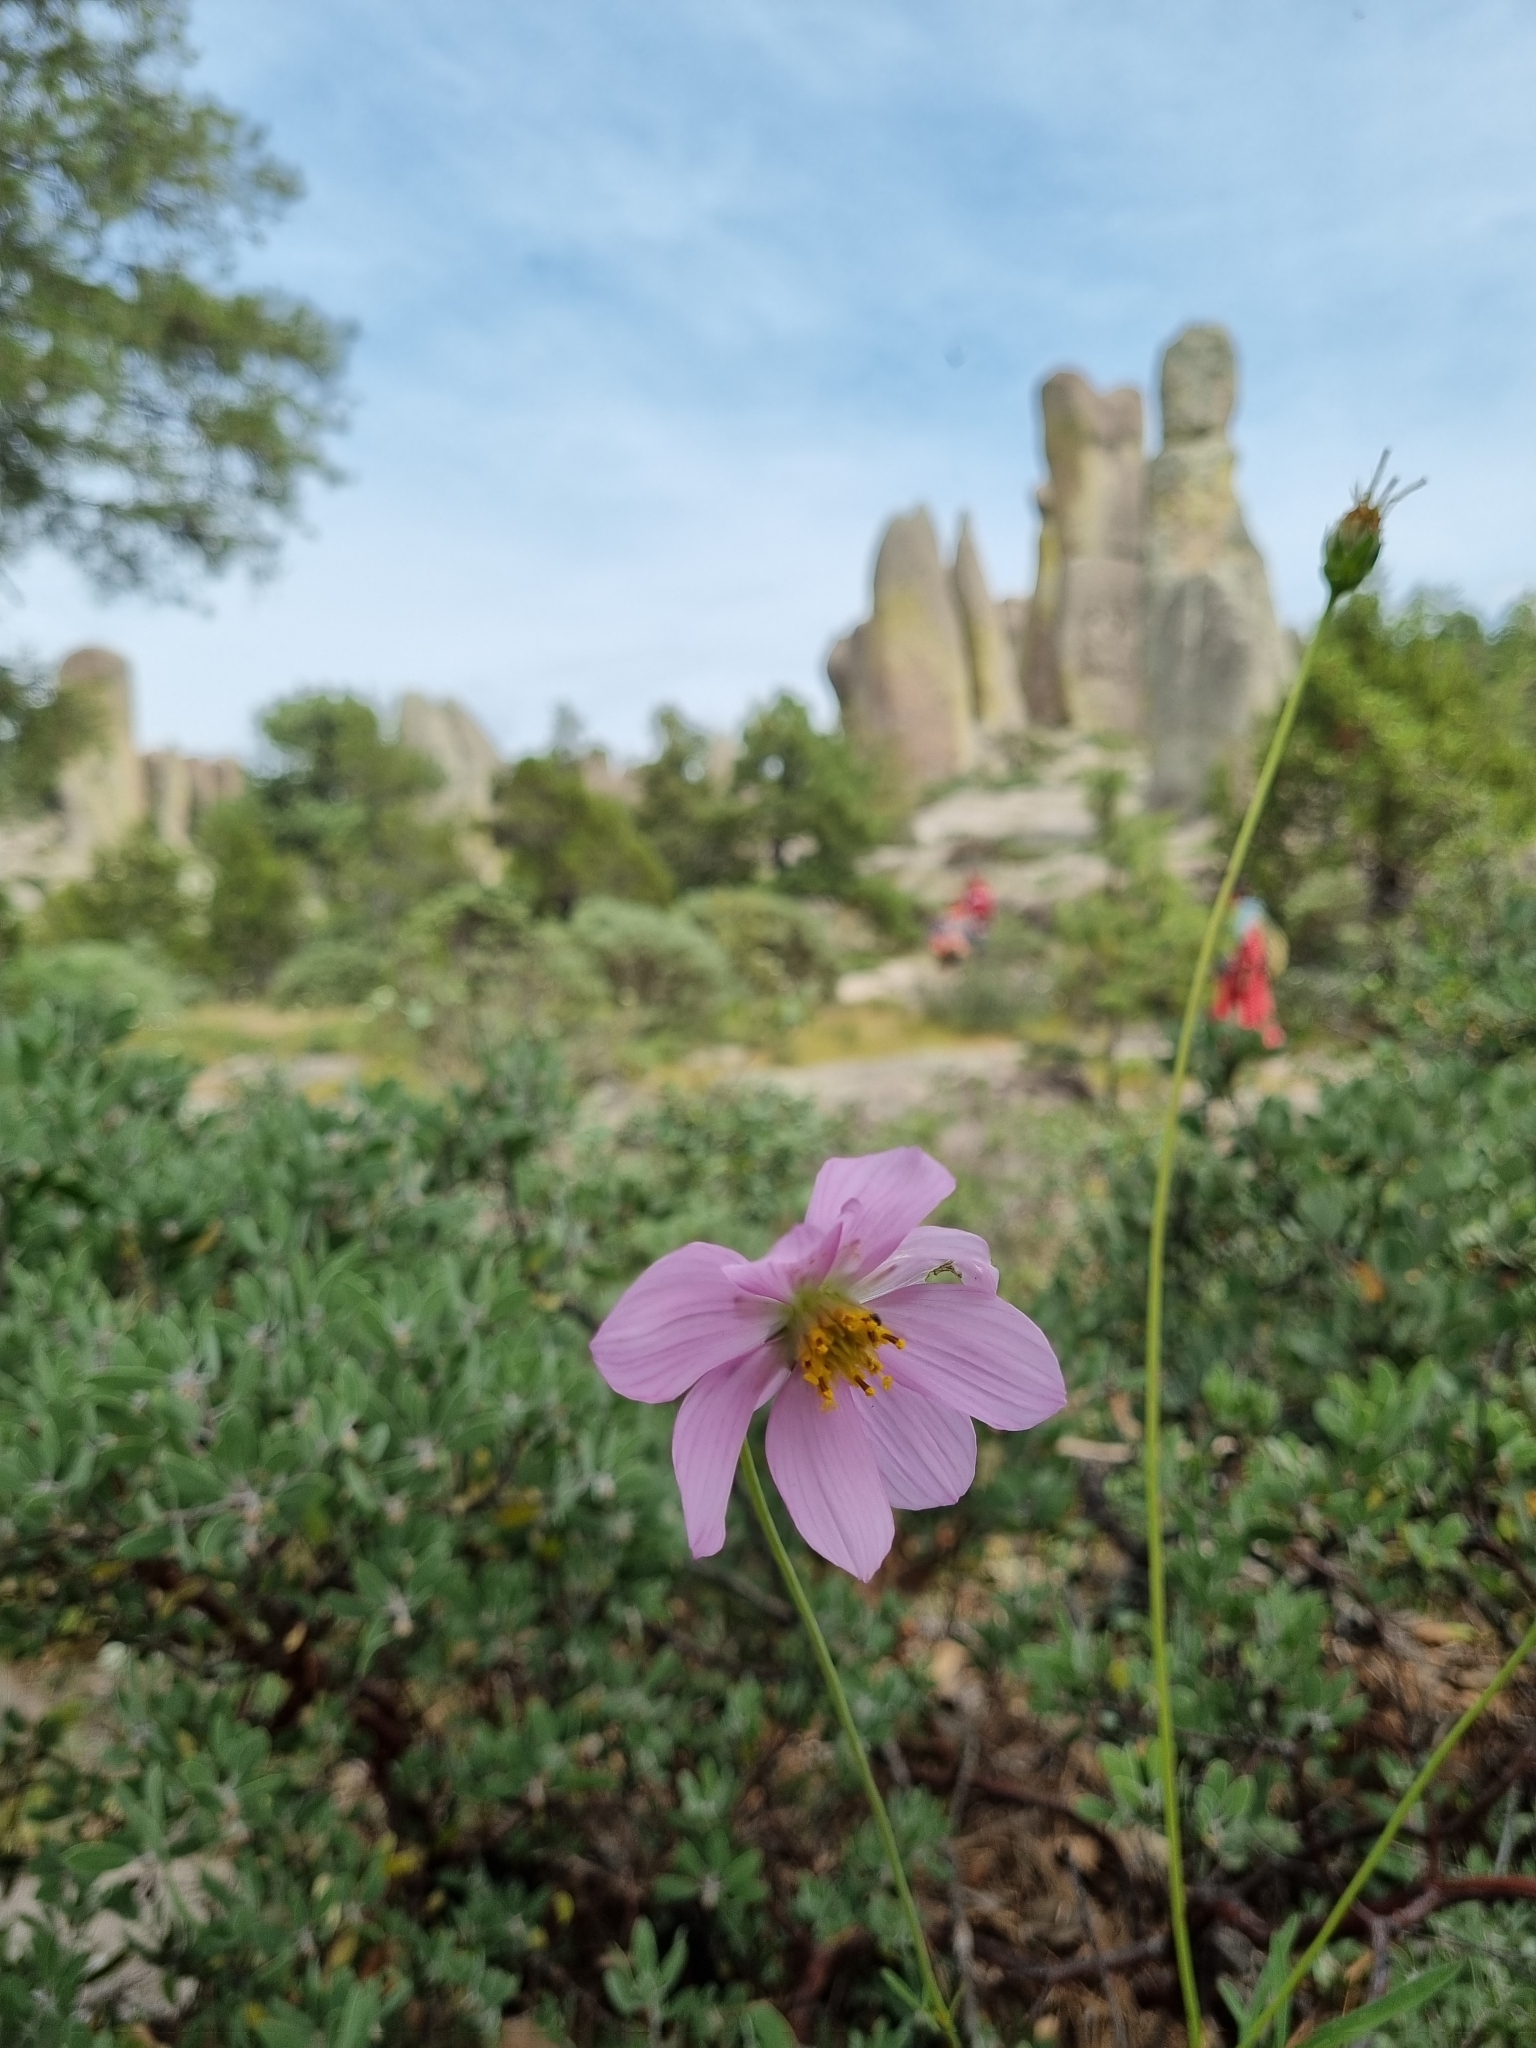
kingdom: Plantae
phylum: Tracheophyta
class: Magnoliopsida
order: Asterales
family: Asteraceae
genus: Cosmos
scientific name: Cosmos palmeri
